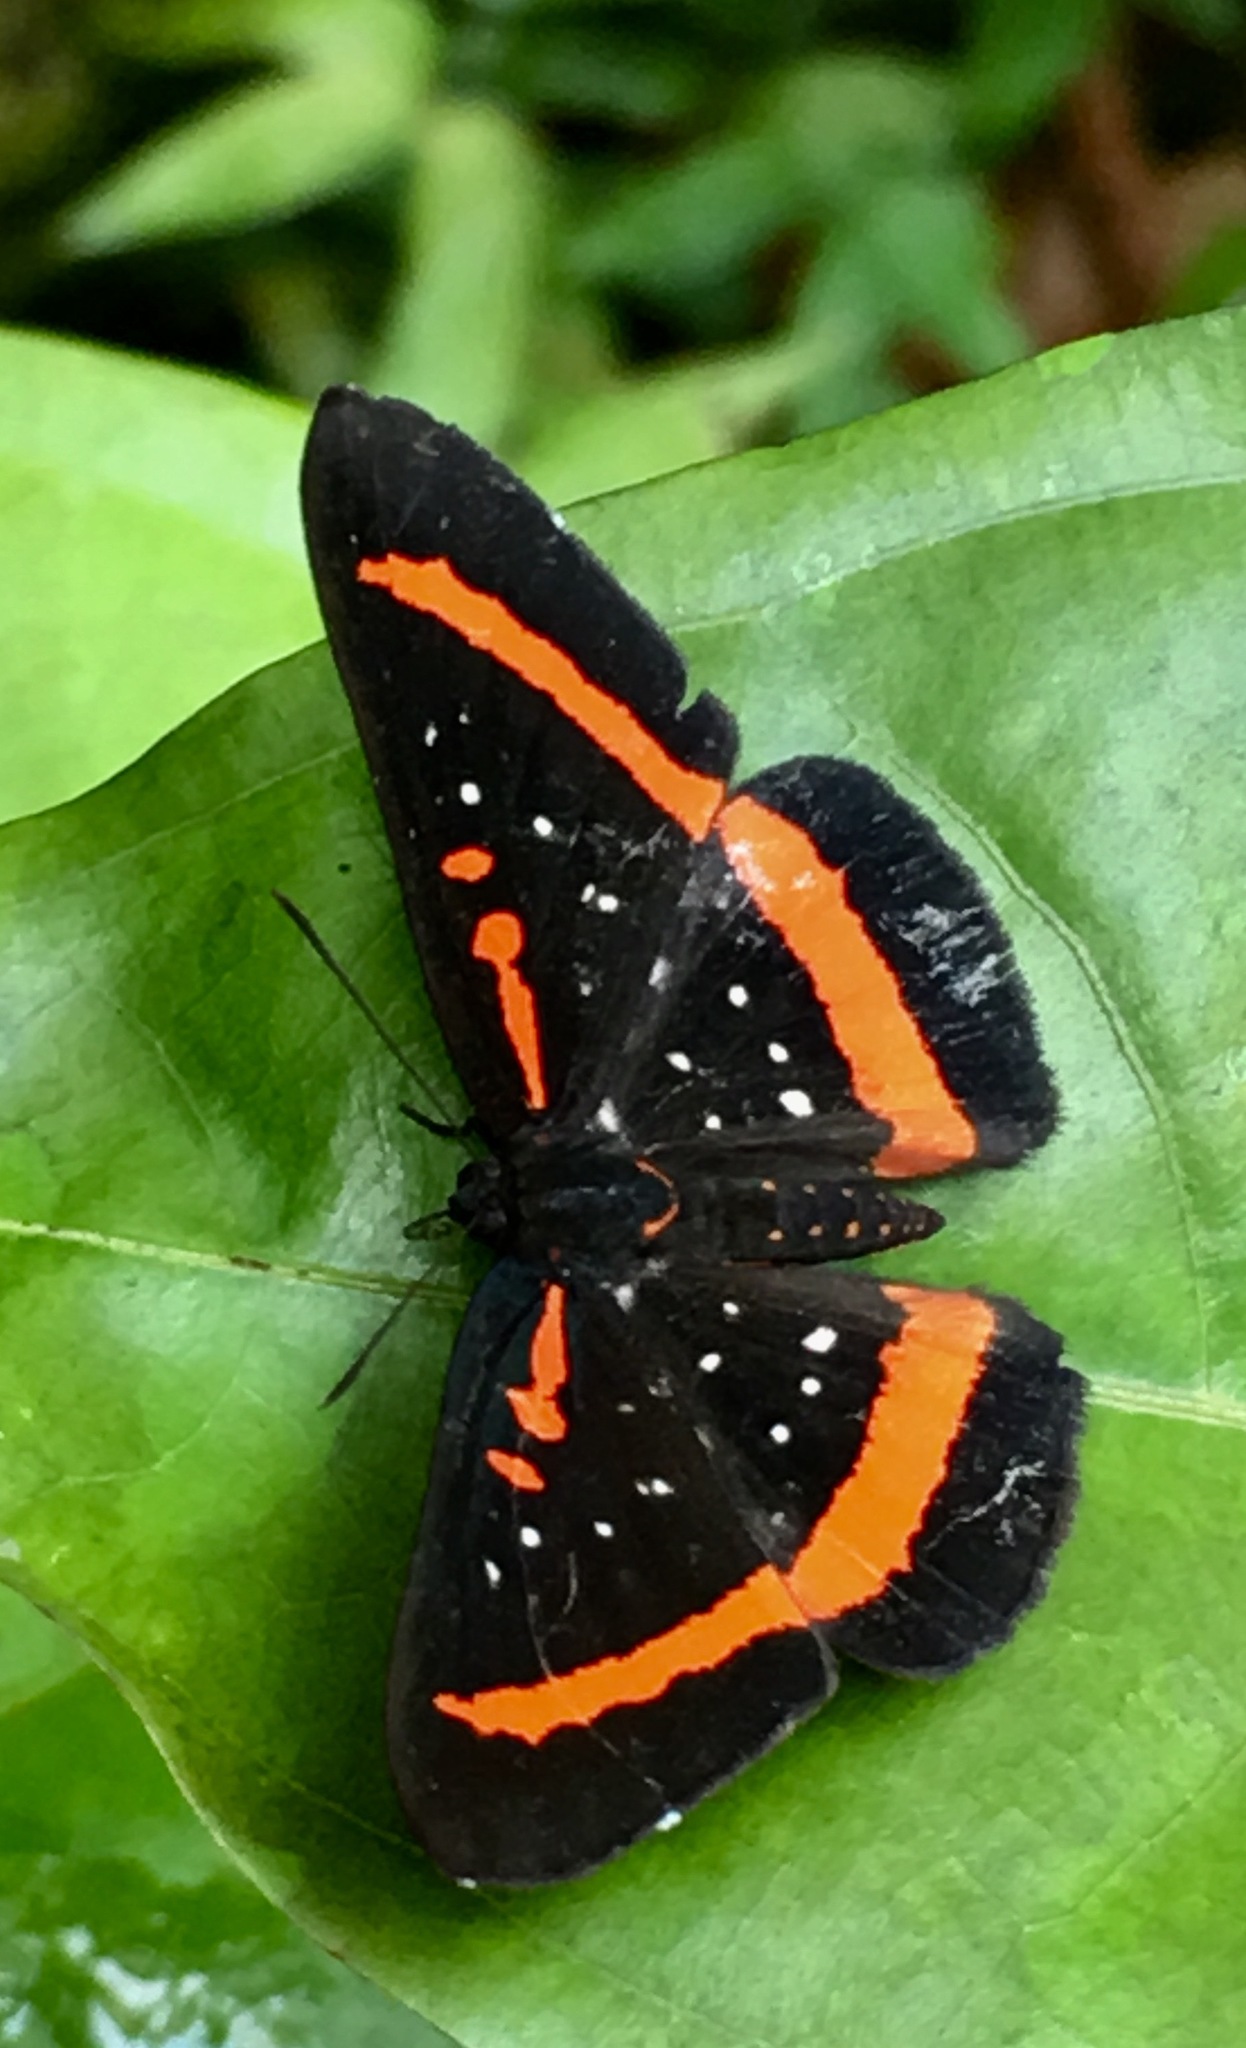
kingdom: Animalia
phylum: Arthropoda
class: Insecta
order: Lepidoptera
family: Riodinidae
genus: Amarynthis
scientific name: Amarynthis meneria
